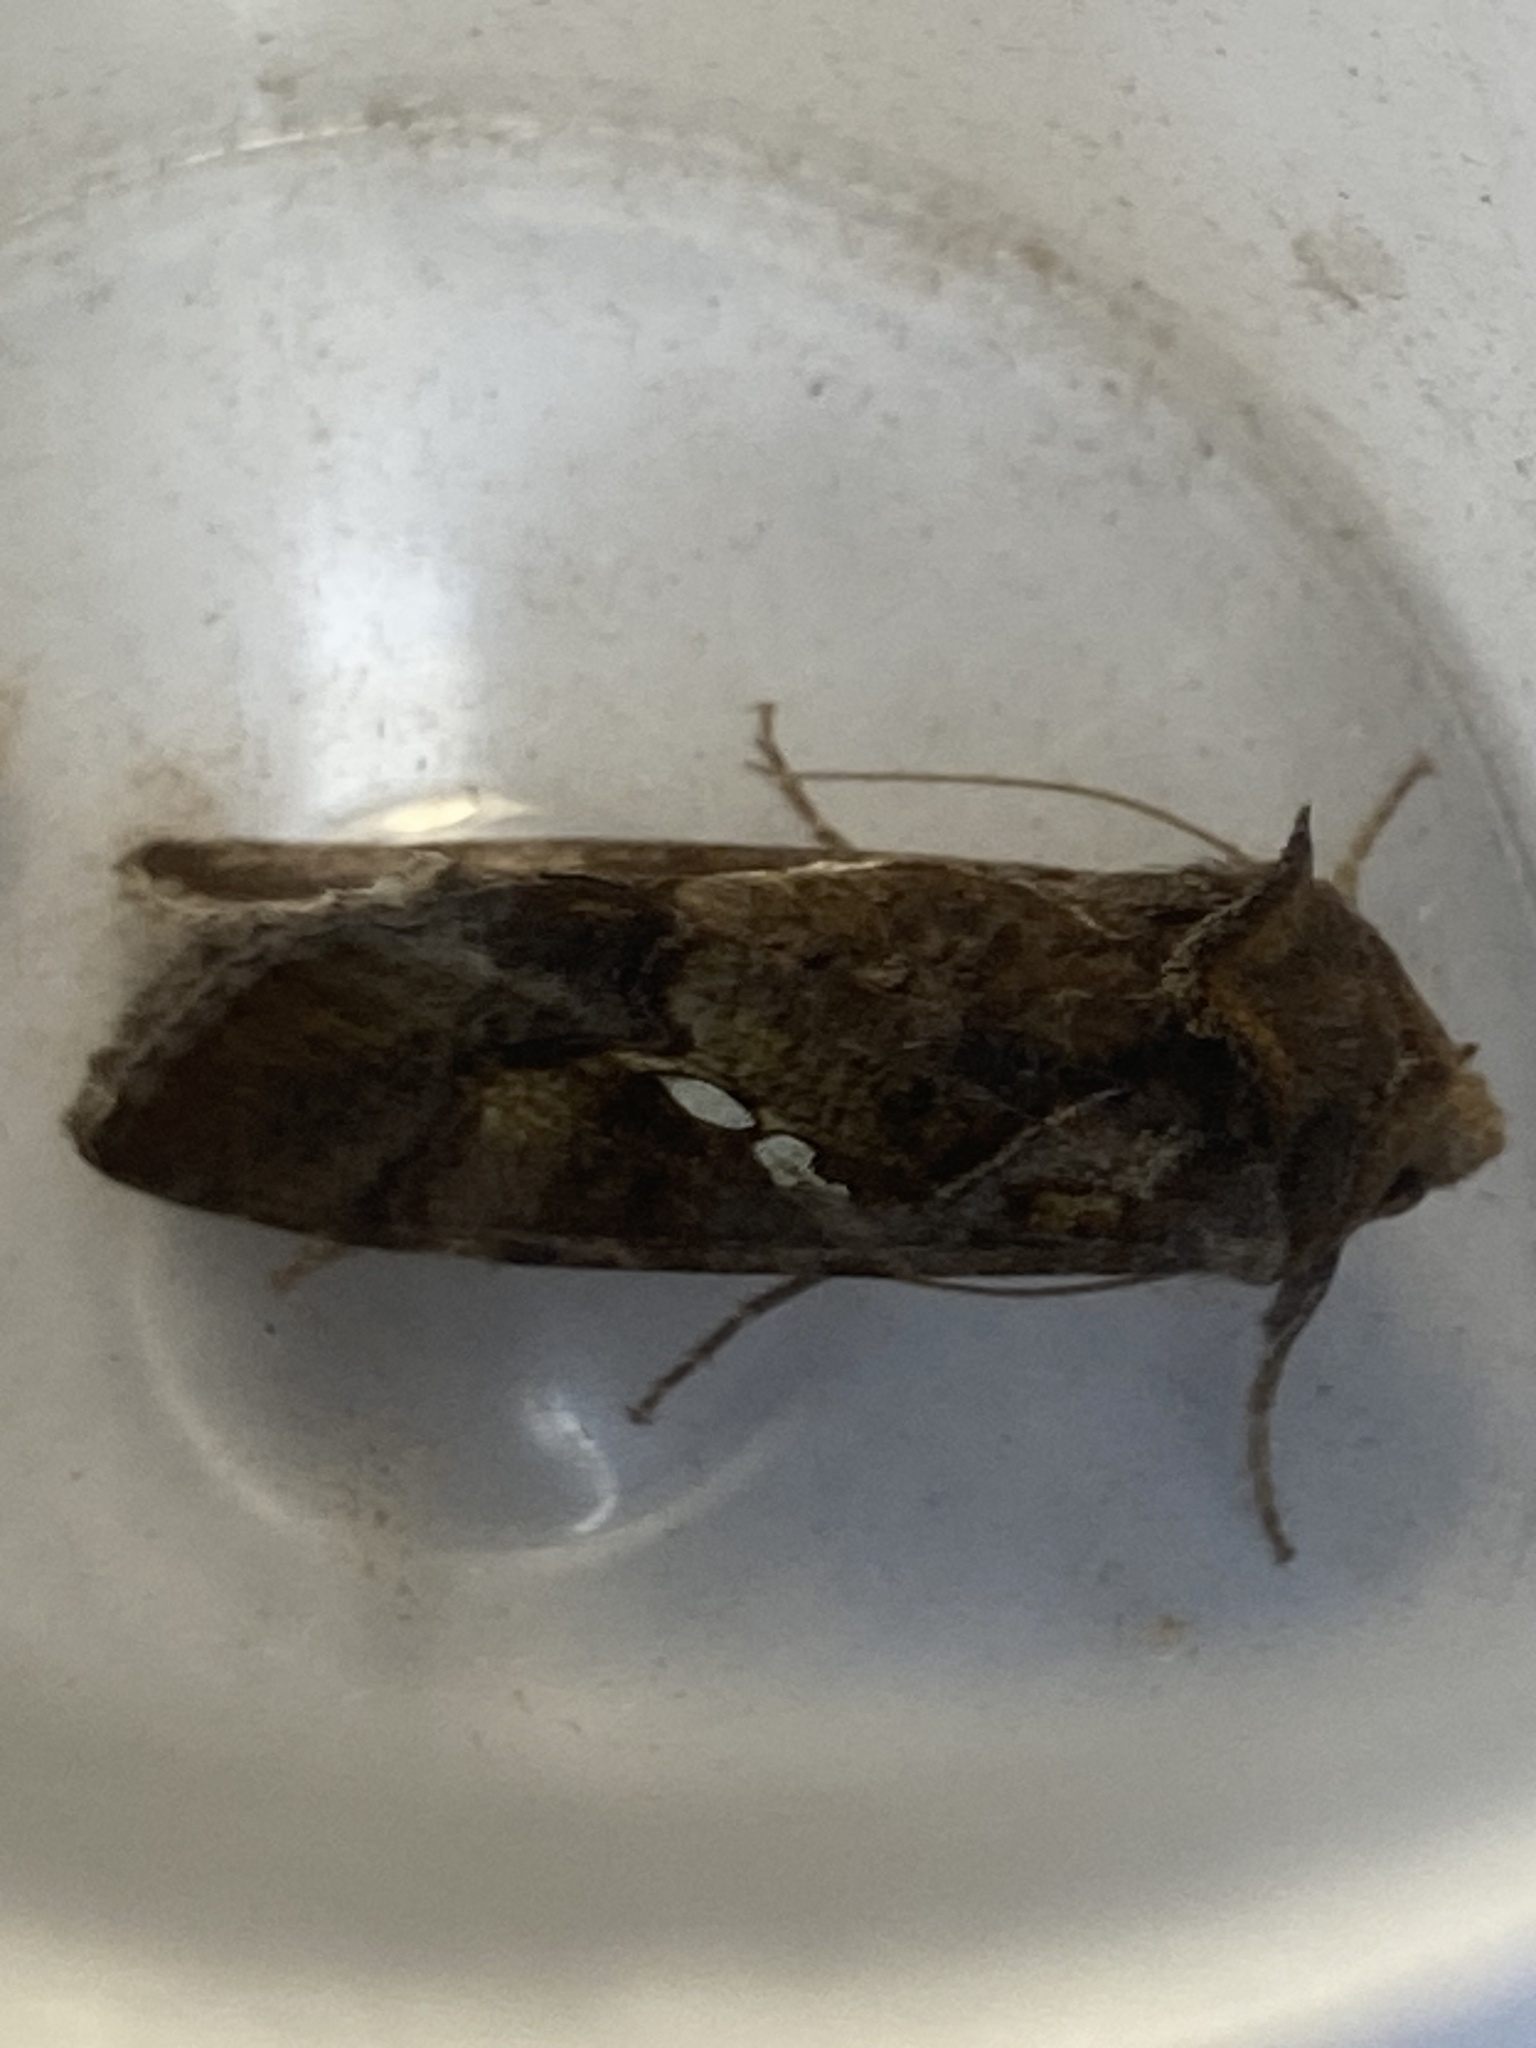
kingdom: Animalia
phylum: Arthropoda
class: Insecta
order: Lepidoptera
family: Noctuidae
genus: Chrysodeixis
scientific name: Chrysodeixis chalcites
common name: Golden twin-spot
